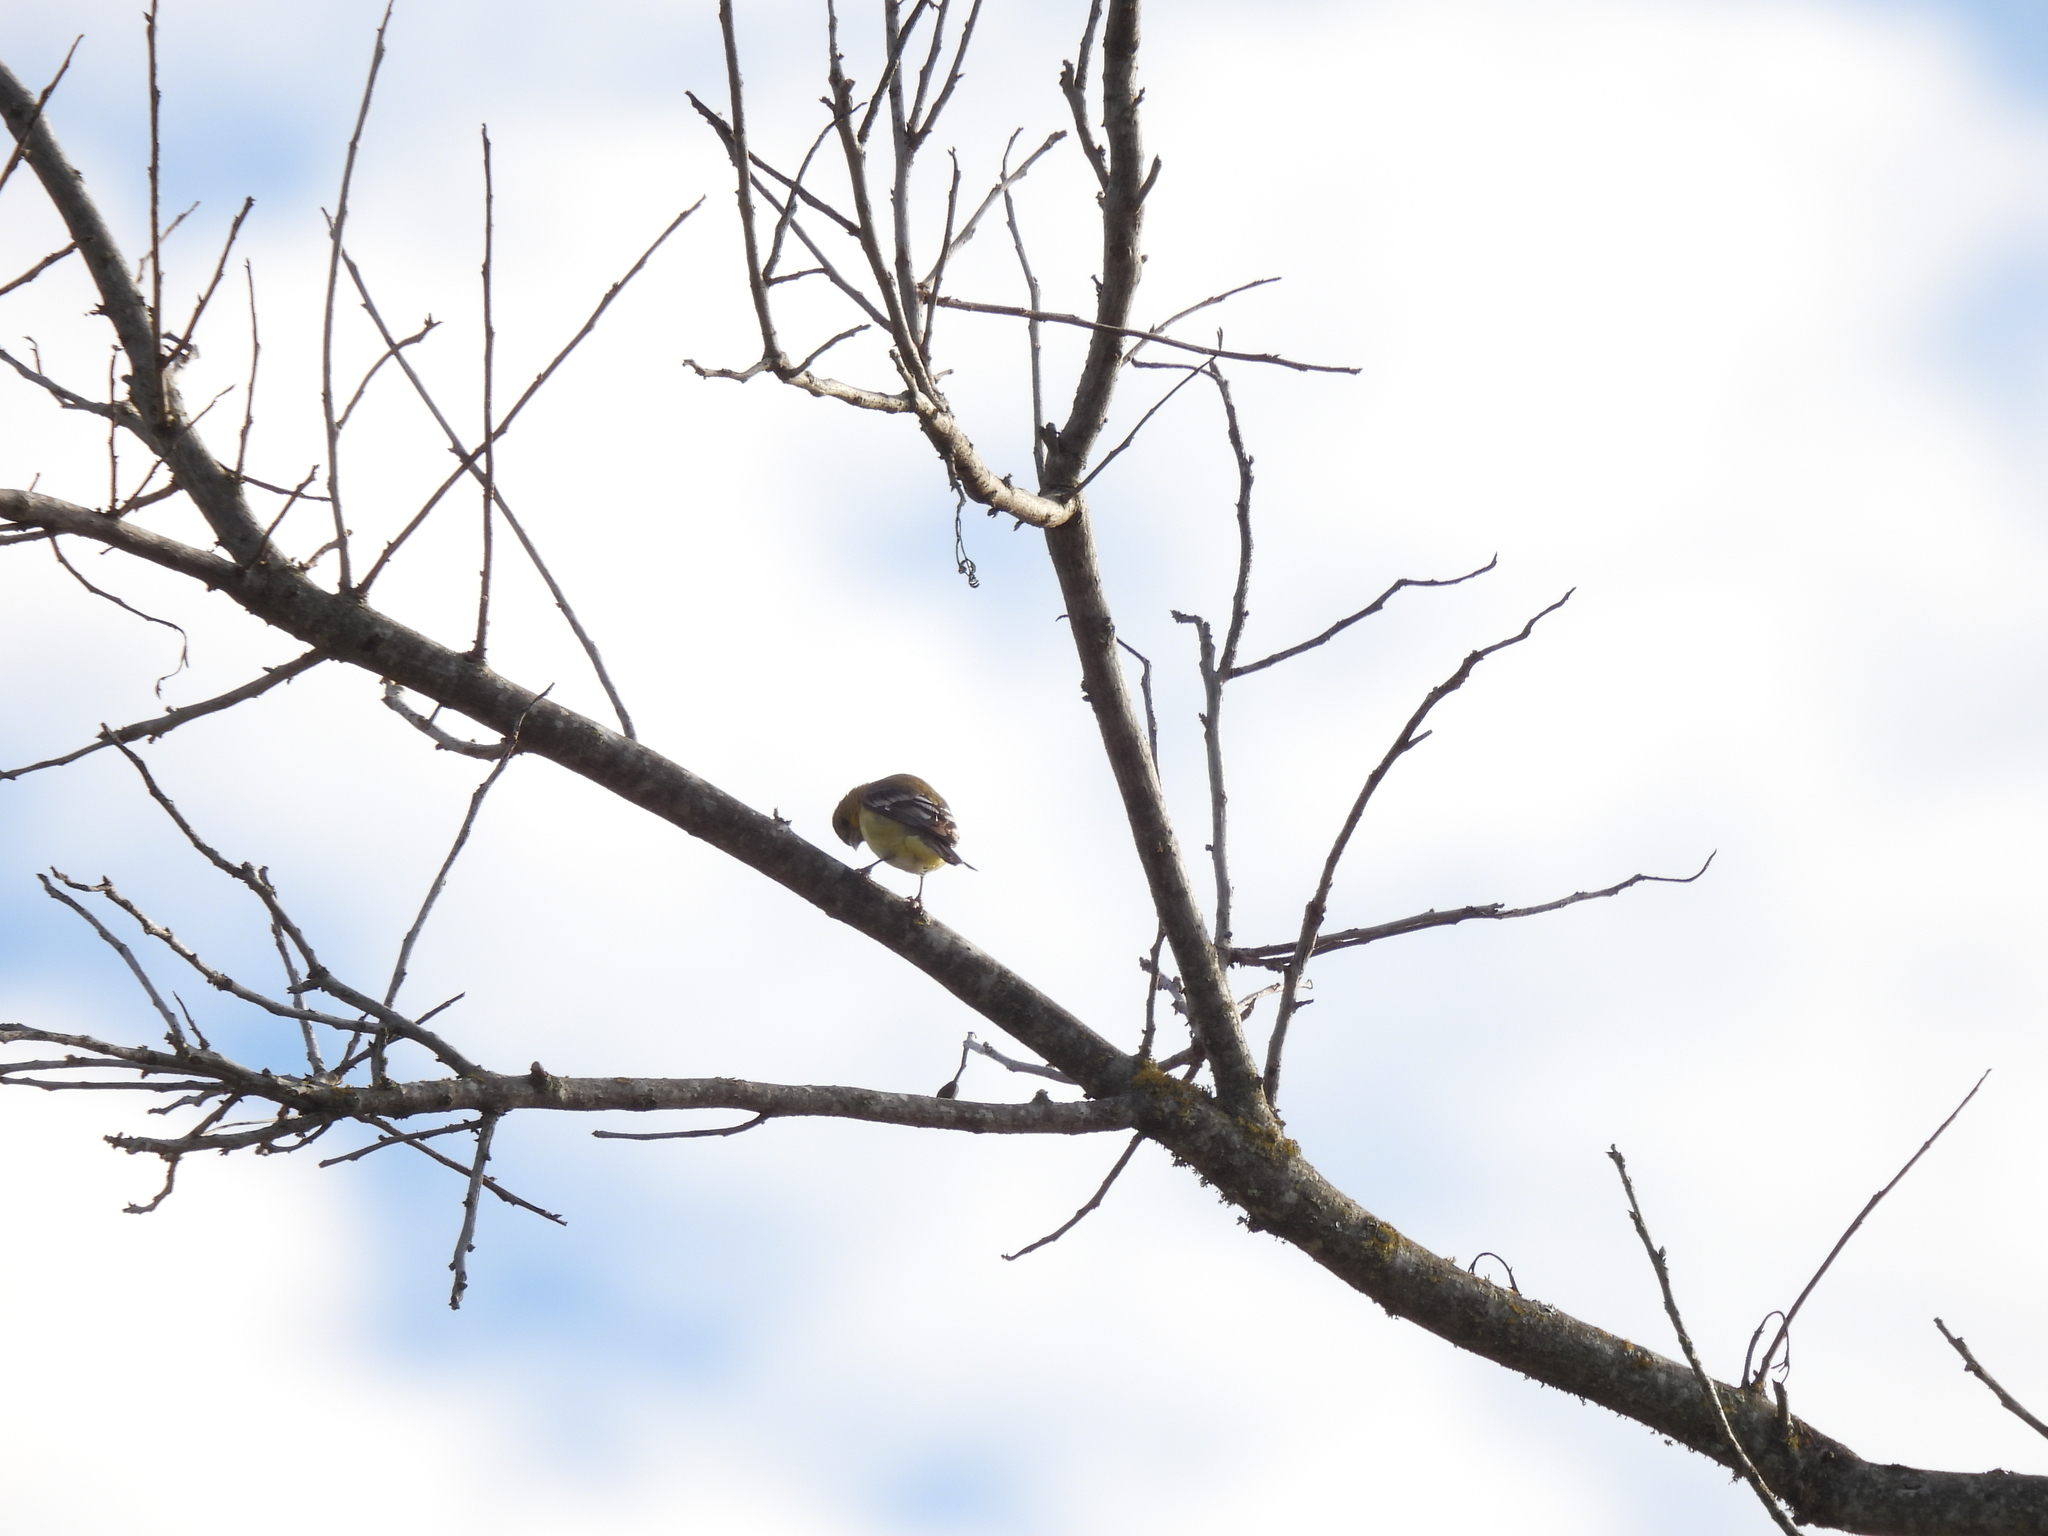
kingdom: Animalia
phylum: Chordata
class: Aves
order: Passeriformes
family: Fringillidae
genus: Spinus
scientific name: Spinus psaltria
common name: Lesser goldfinch
